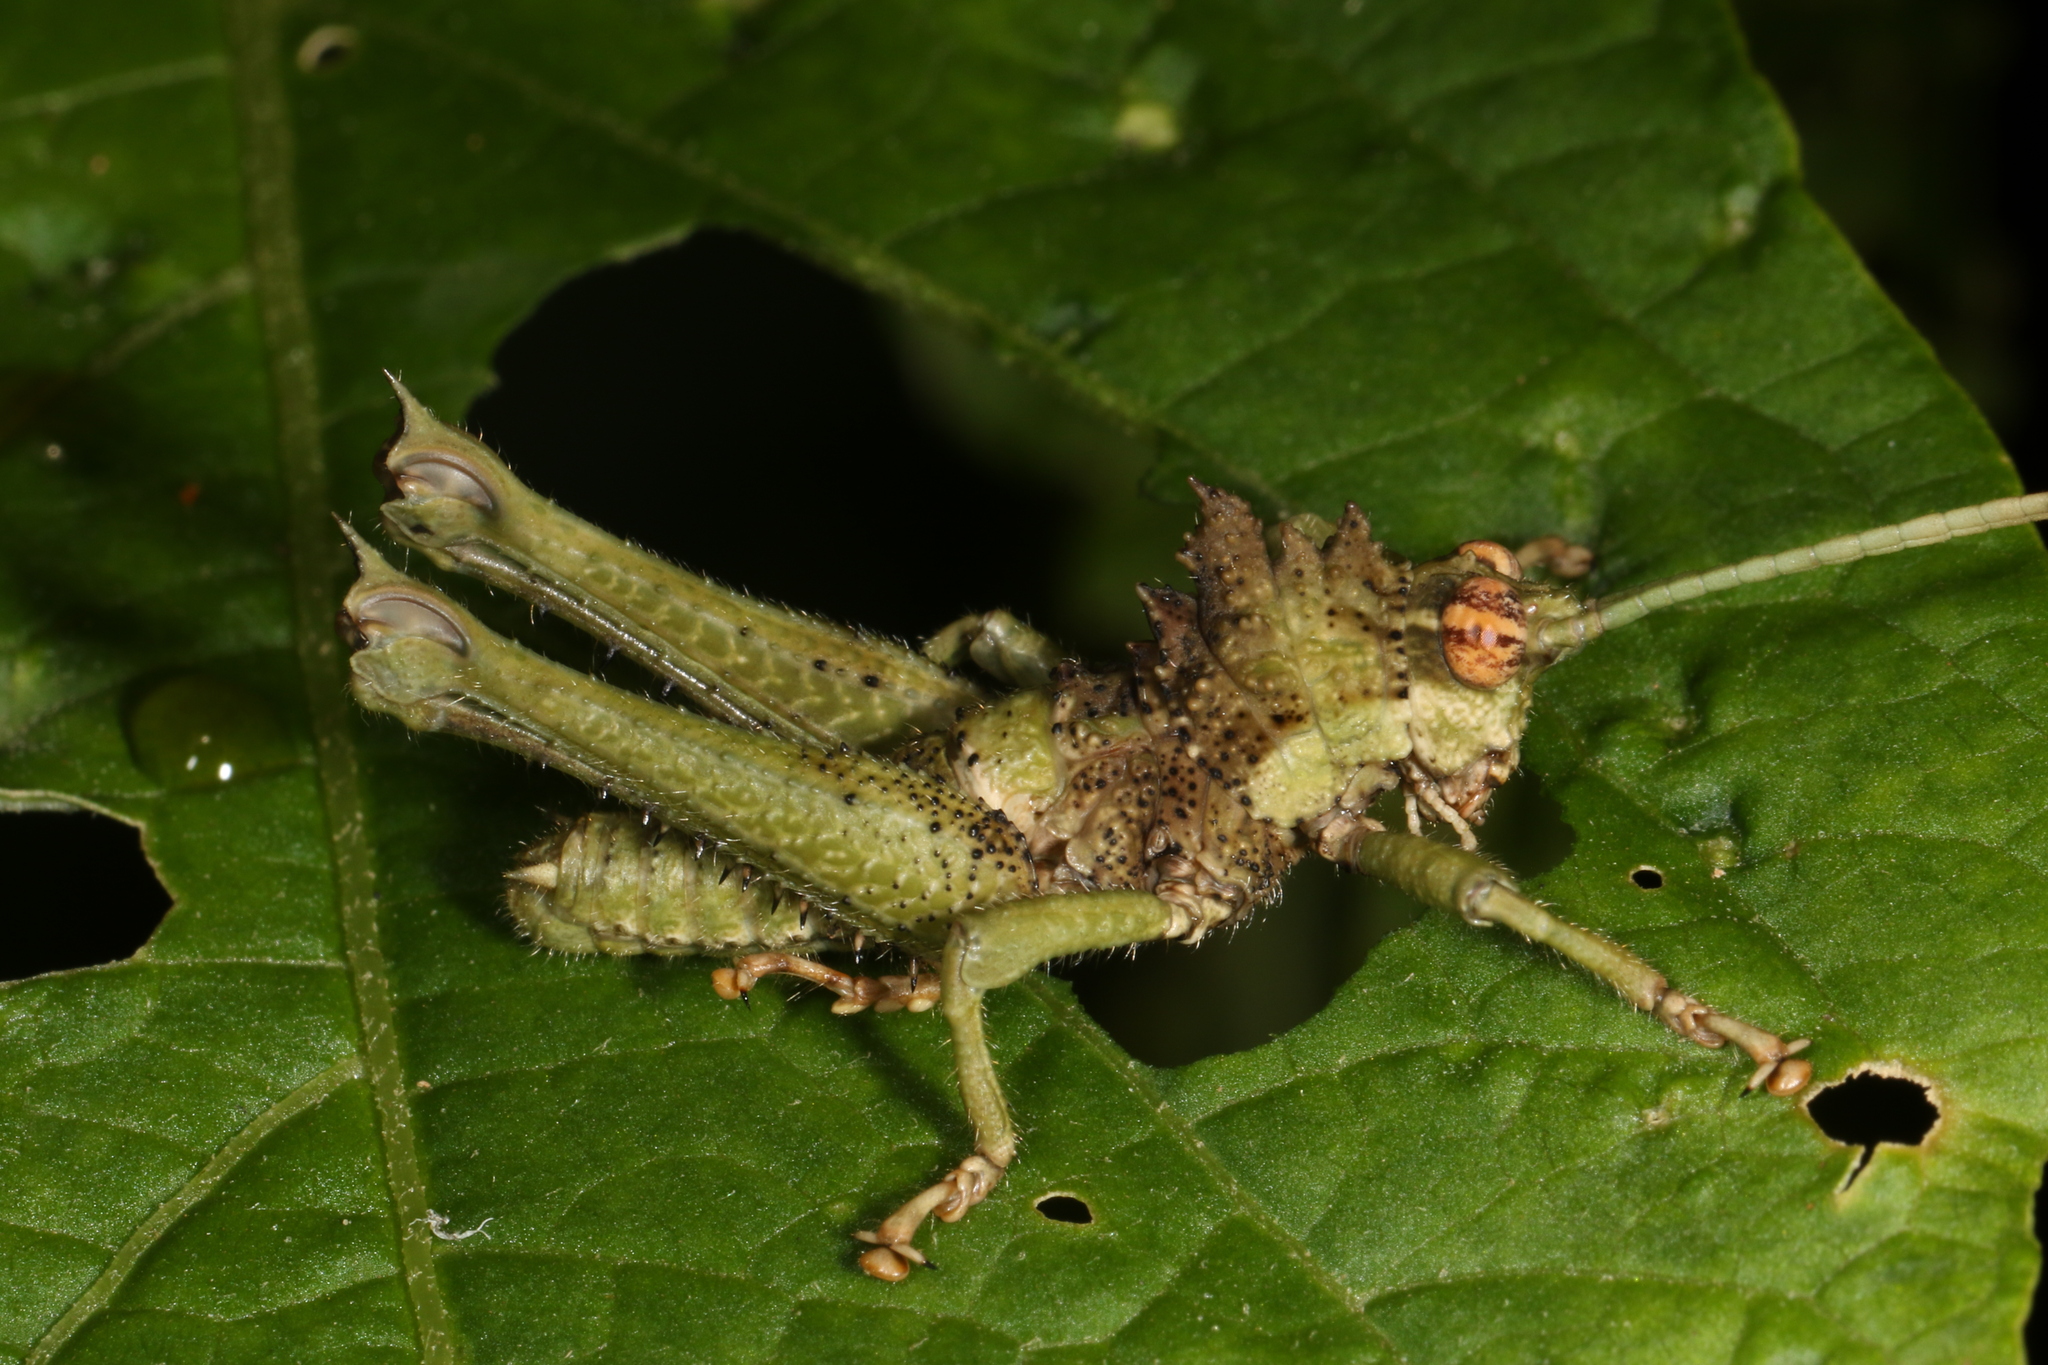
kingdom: Animalia
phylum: Arthropoda
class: Insecta
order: Orthoptera
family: Acrididae
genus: Pycnosarcus
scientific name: Pycnosarcus atavus
